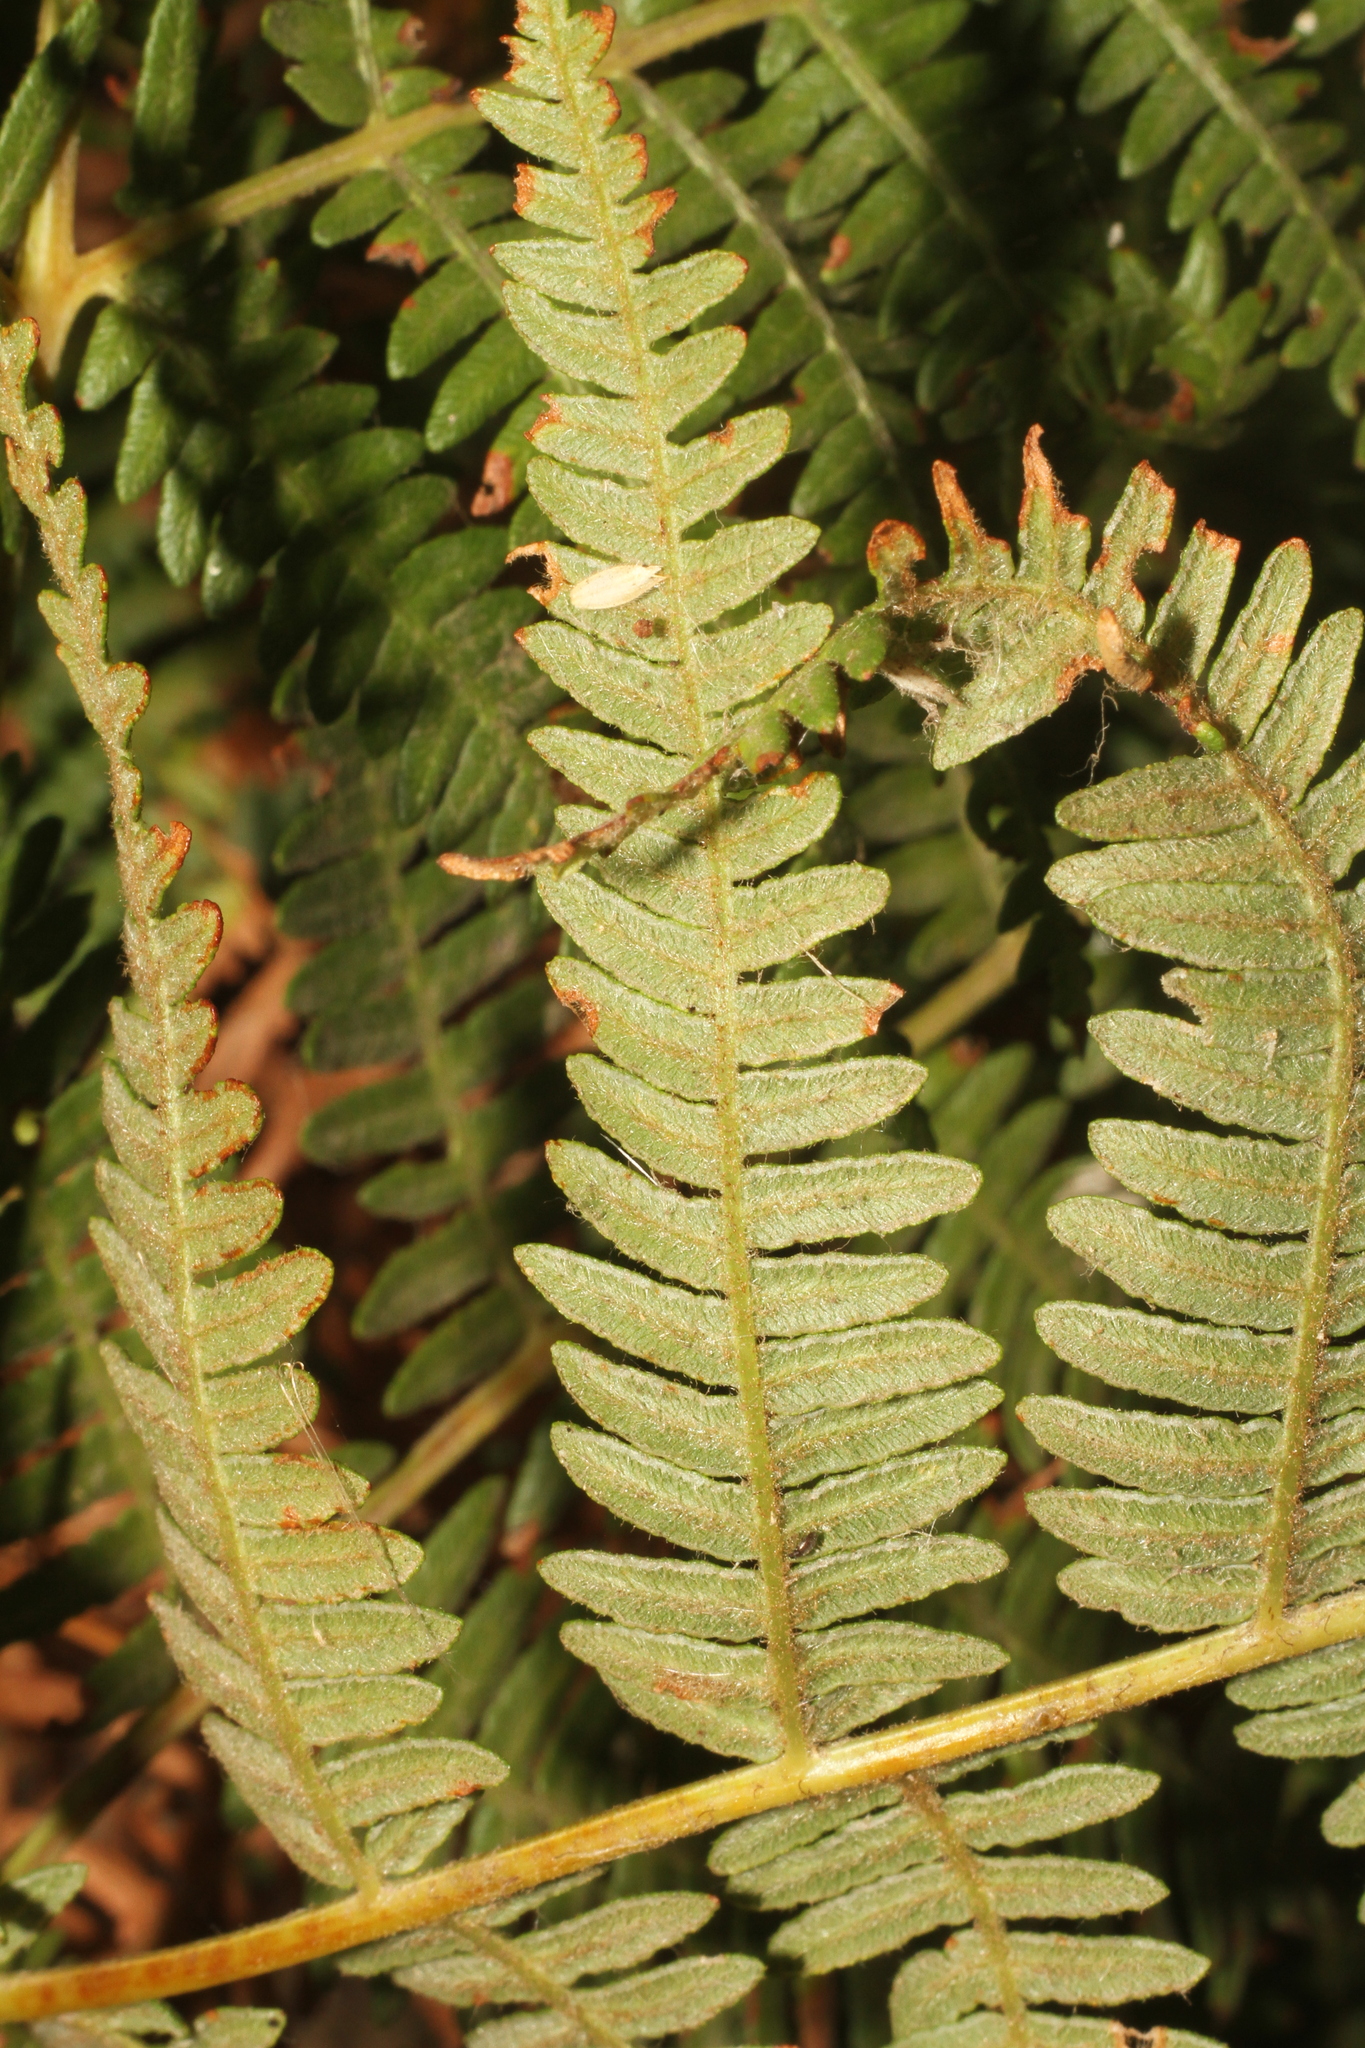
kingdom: Plantae
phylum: Tracheophyta
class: Polypodiopsida
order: Polypodiales
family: Dennstaedtiaceae
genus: Pteridium
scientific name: Pteridium aquilinum
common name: Bracken
